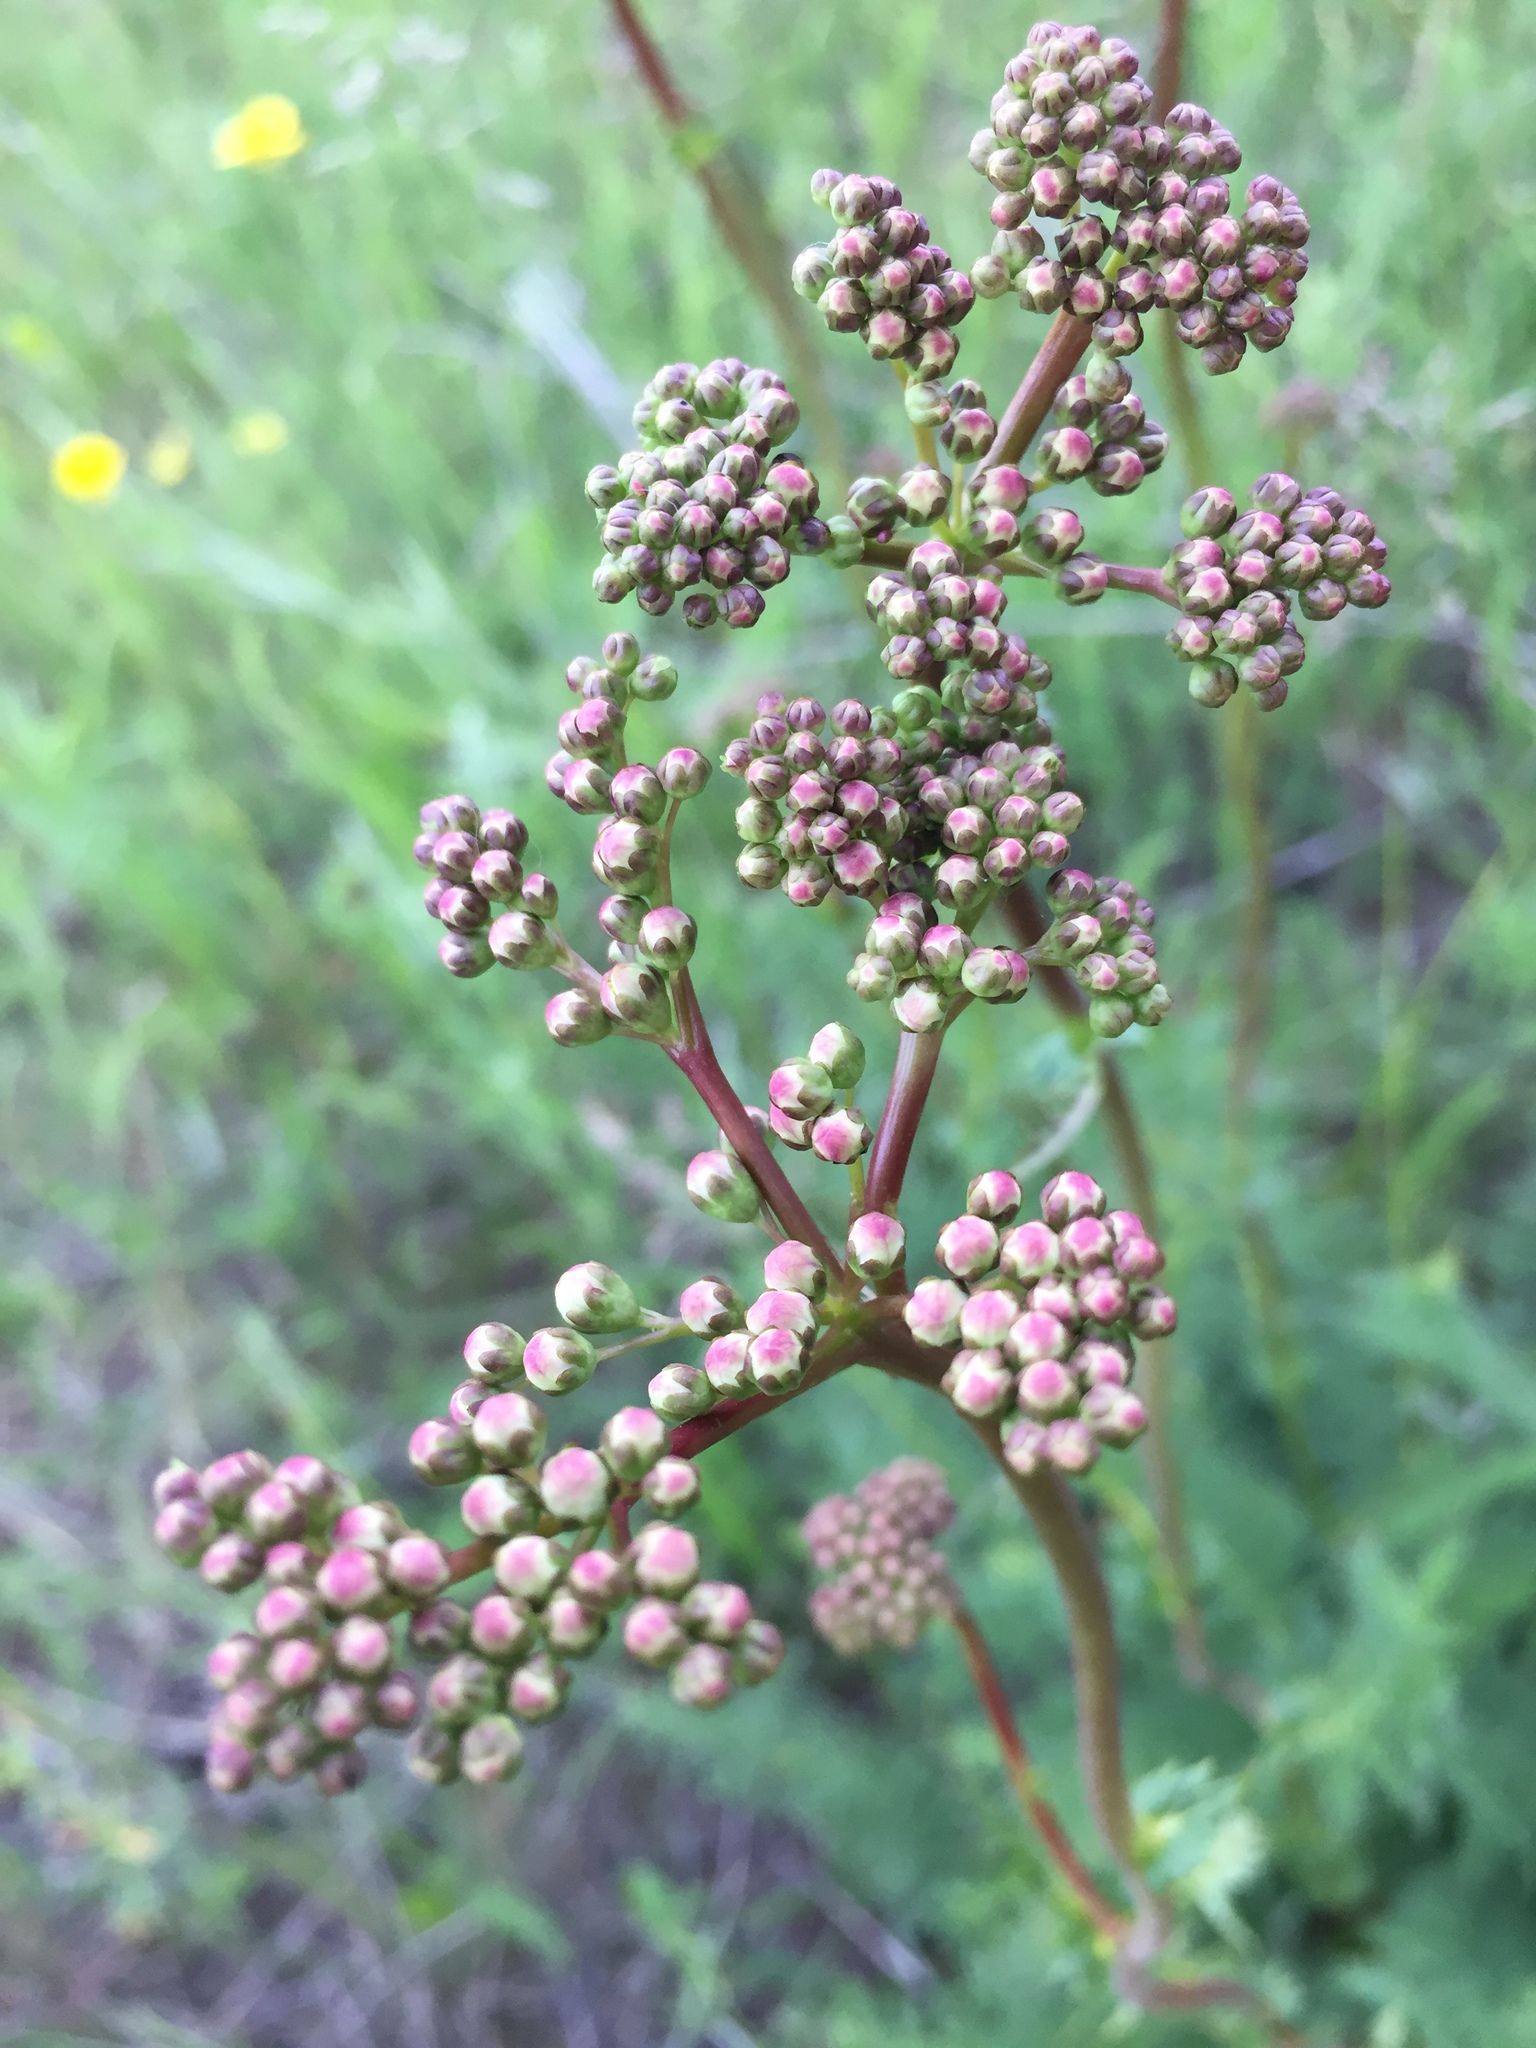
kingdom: Plantae
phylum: Tracheophyta
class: Magnoliopsida
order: Rosales
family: Rosaceae
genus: Filipendula
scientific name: Filipendula vulgaris
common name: Dropwort
